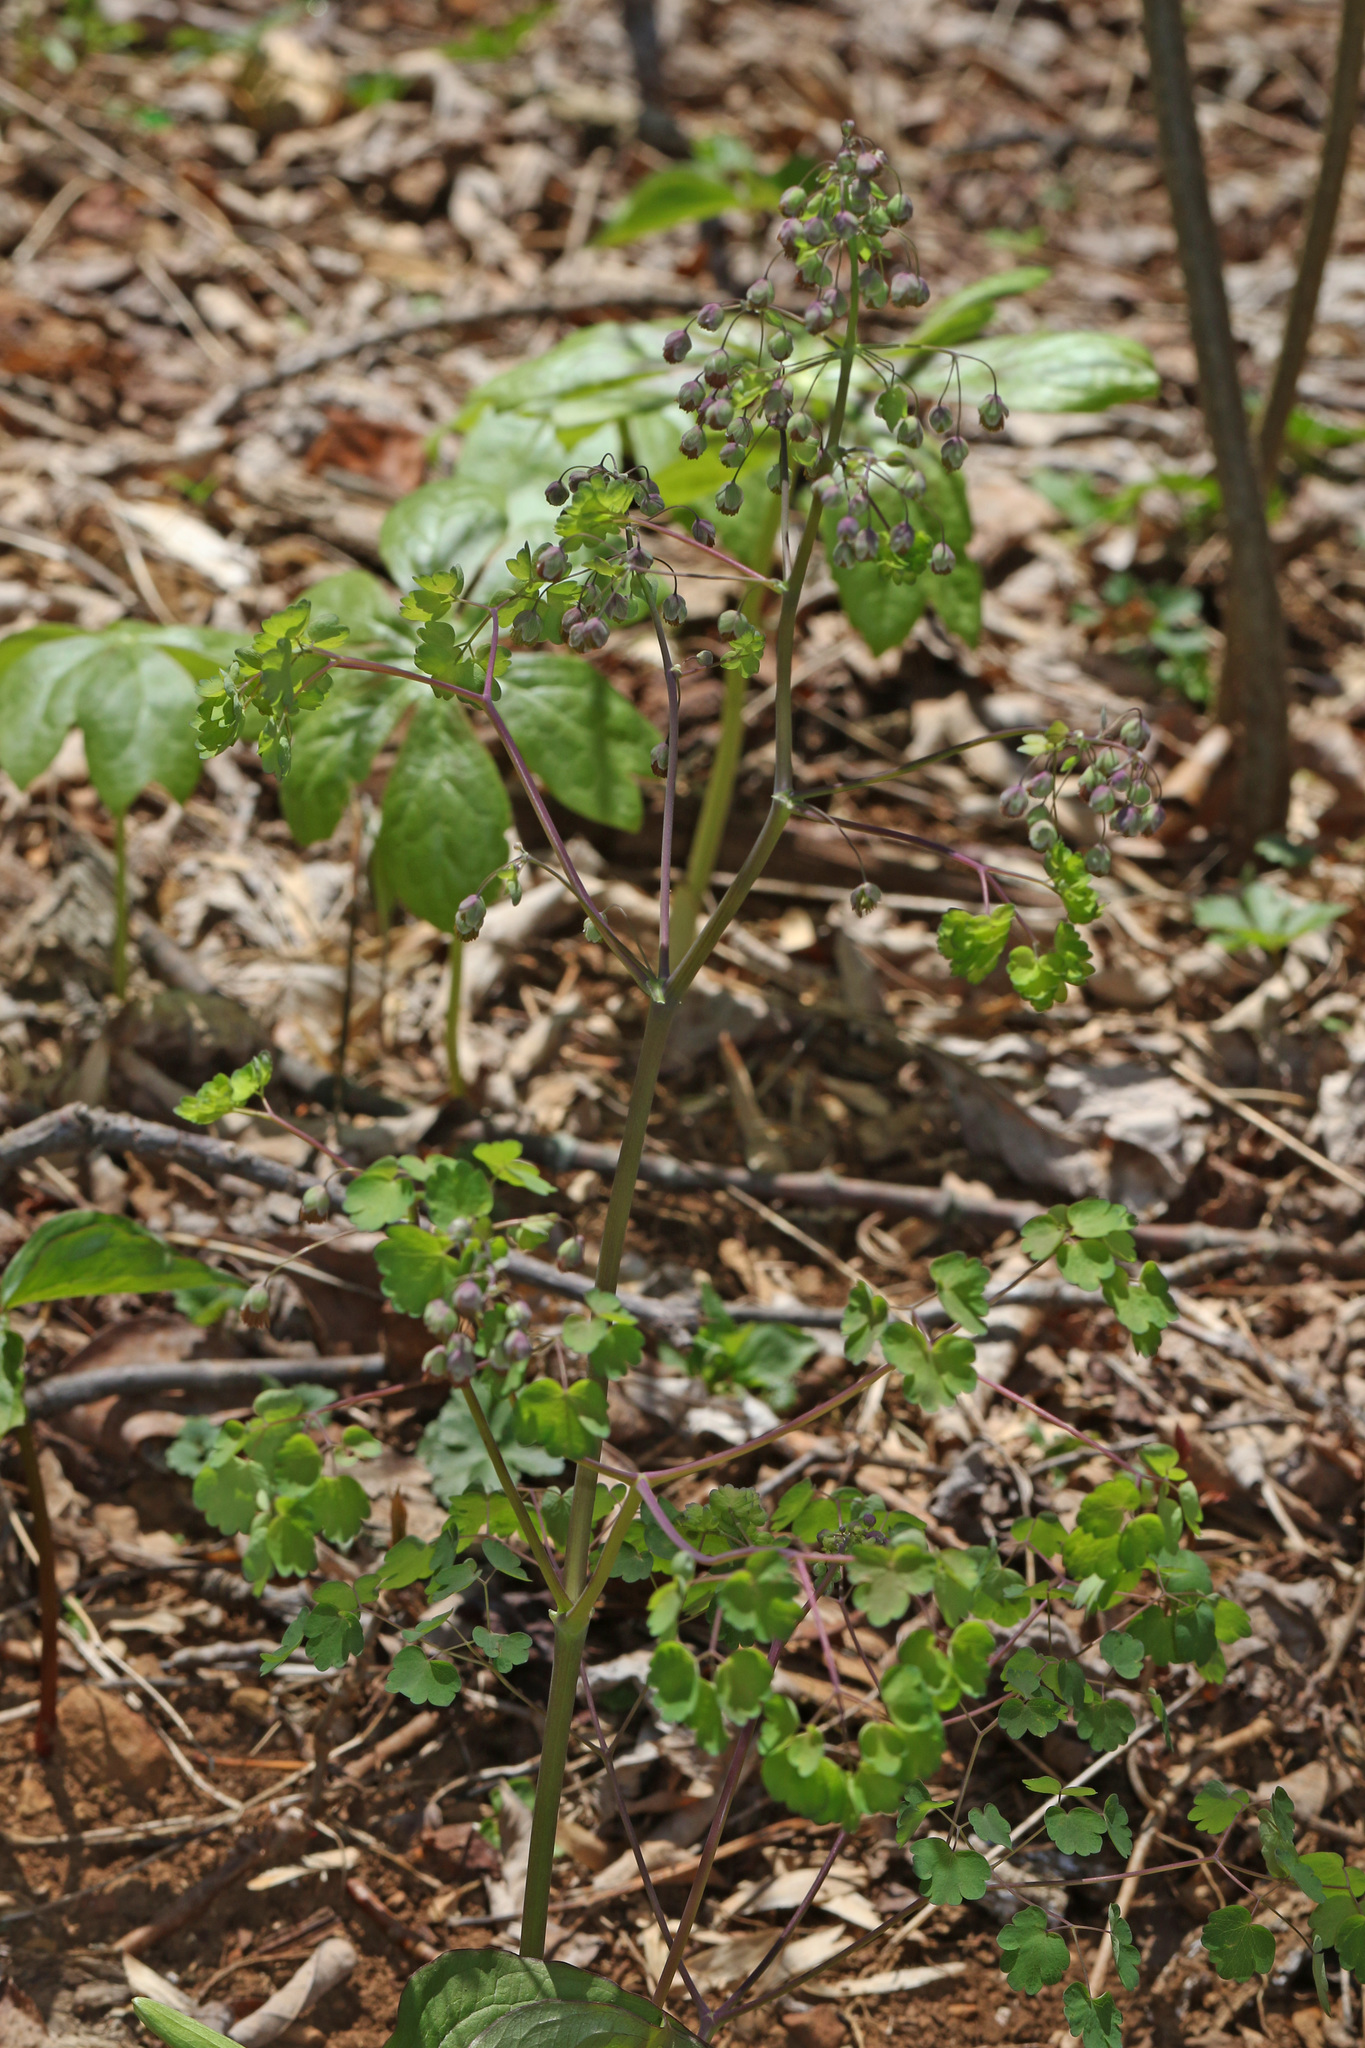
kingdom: Plantae
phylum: Tracheophyta
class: Magnoliopsida
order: Ranunculales
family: Ranunculaceae
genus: Thalictrum
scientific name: Thalictrum dioicum
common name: Early meadow-rue
